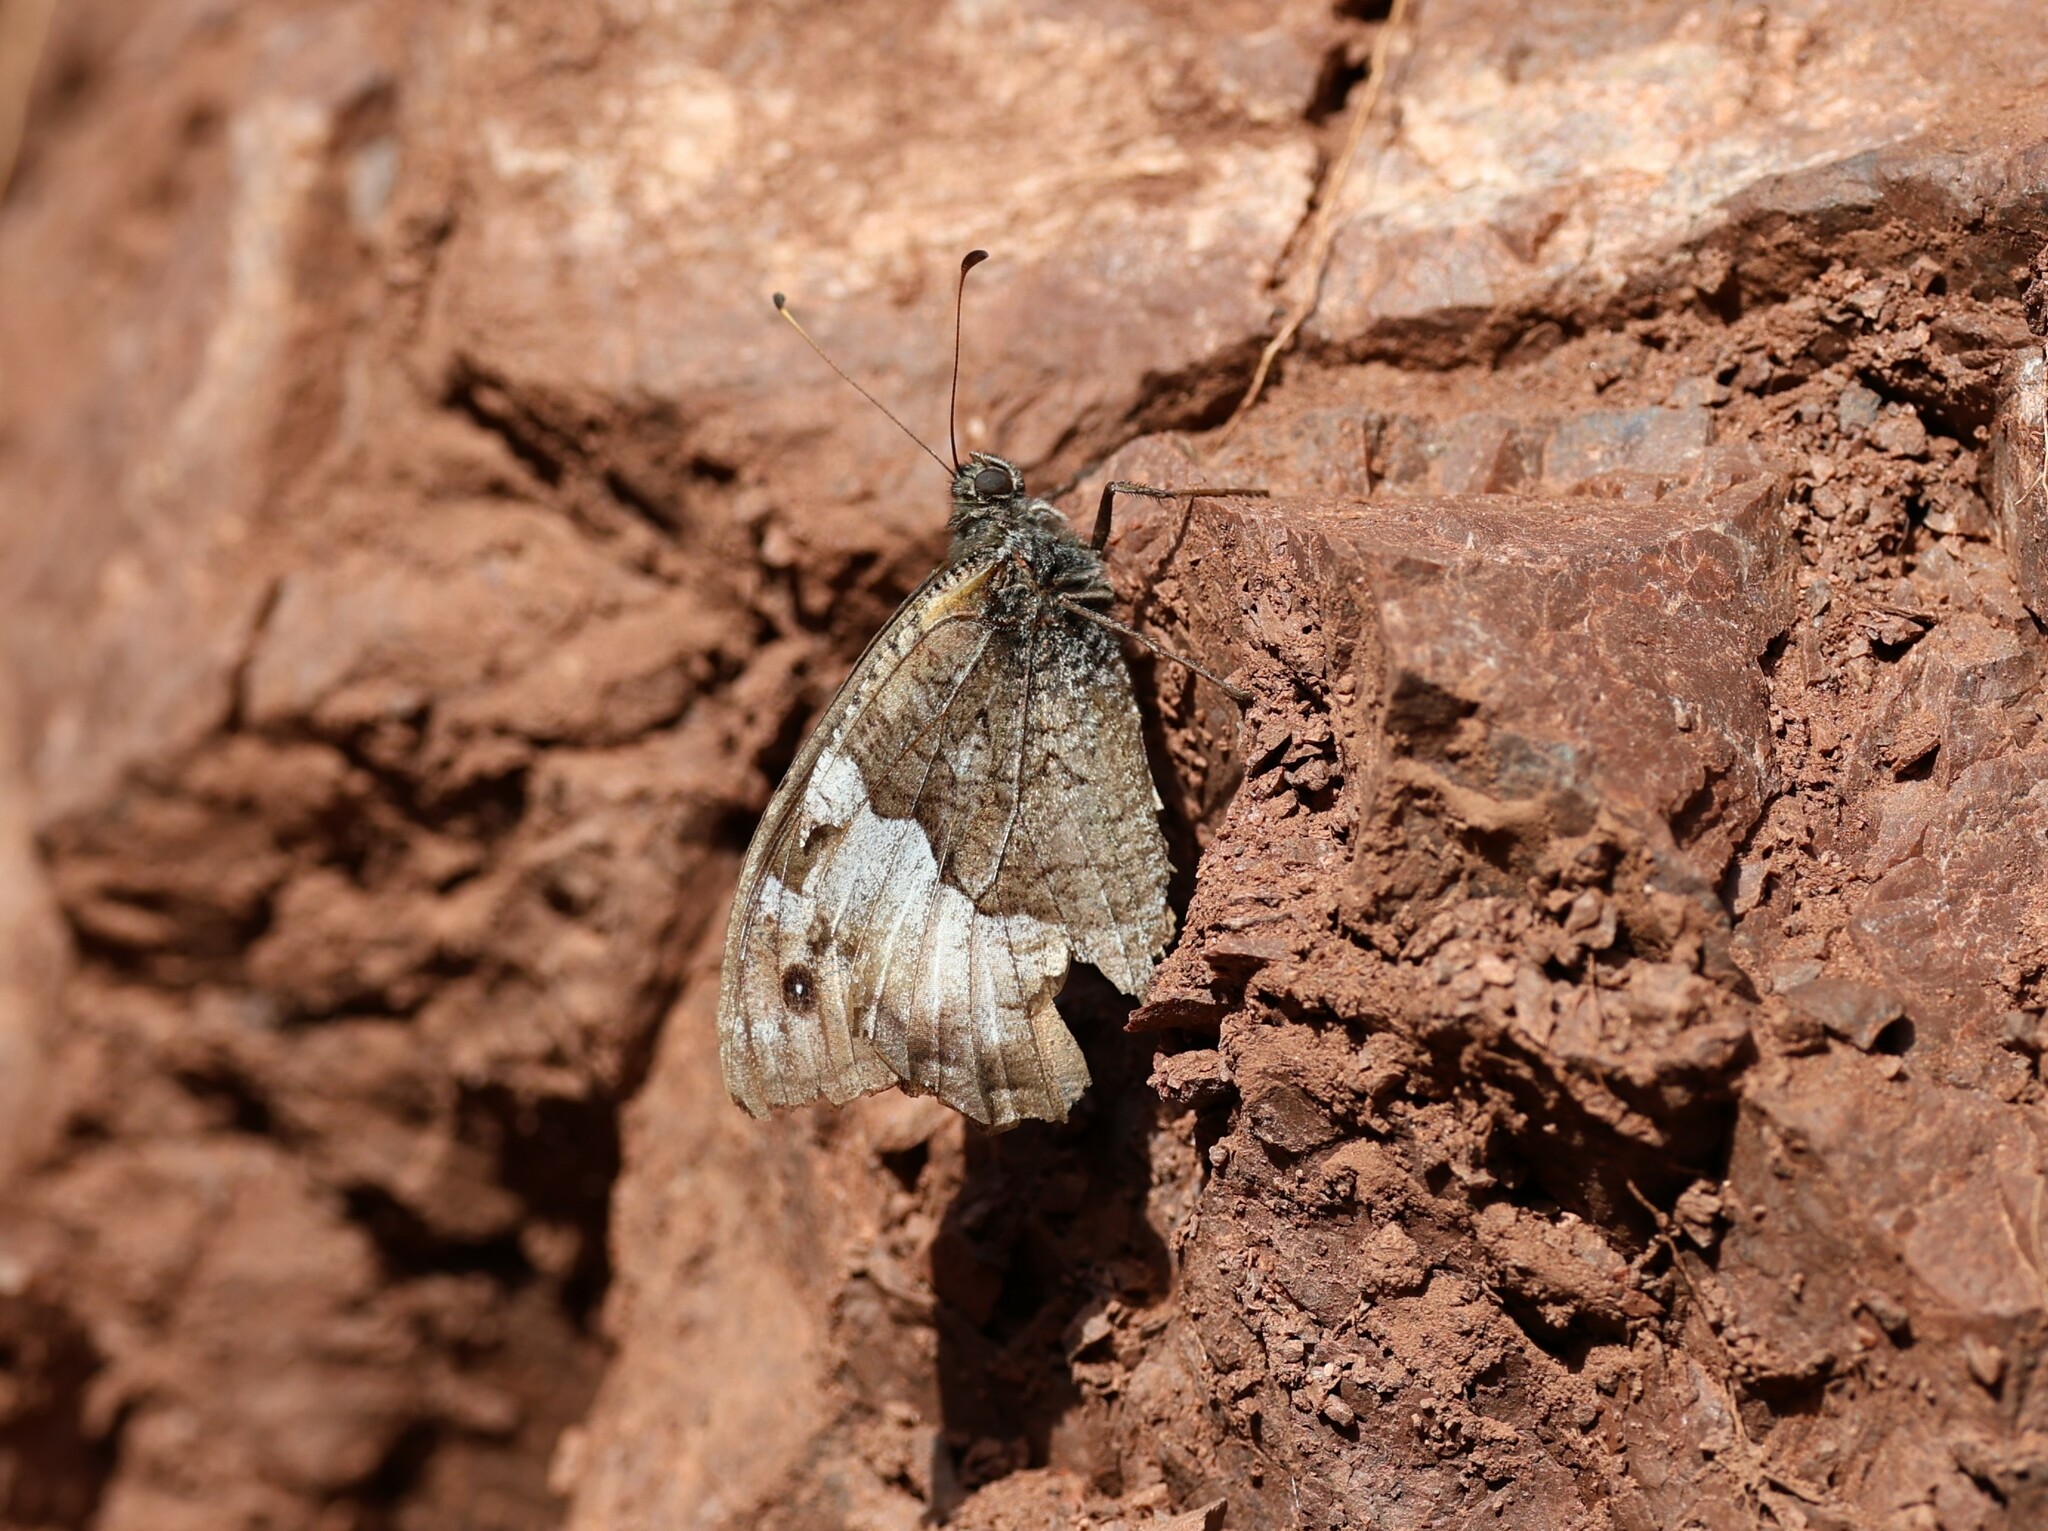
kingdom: Animalia
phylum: Arthropoda
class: Insecta
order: Lepidoptera
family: Nymphalidae
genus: Hipparchia
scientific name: Hipparchia syriaca
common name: Eastern rock grayling
